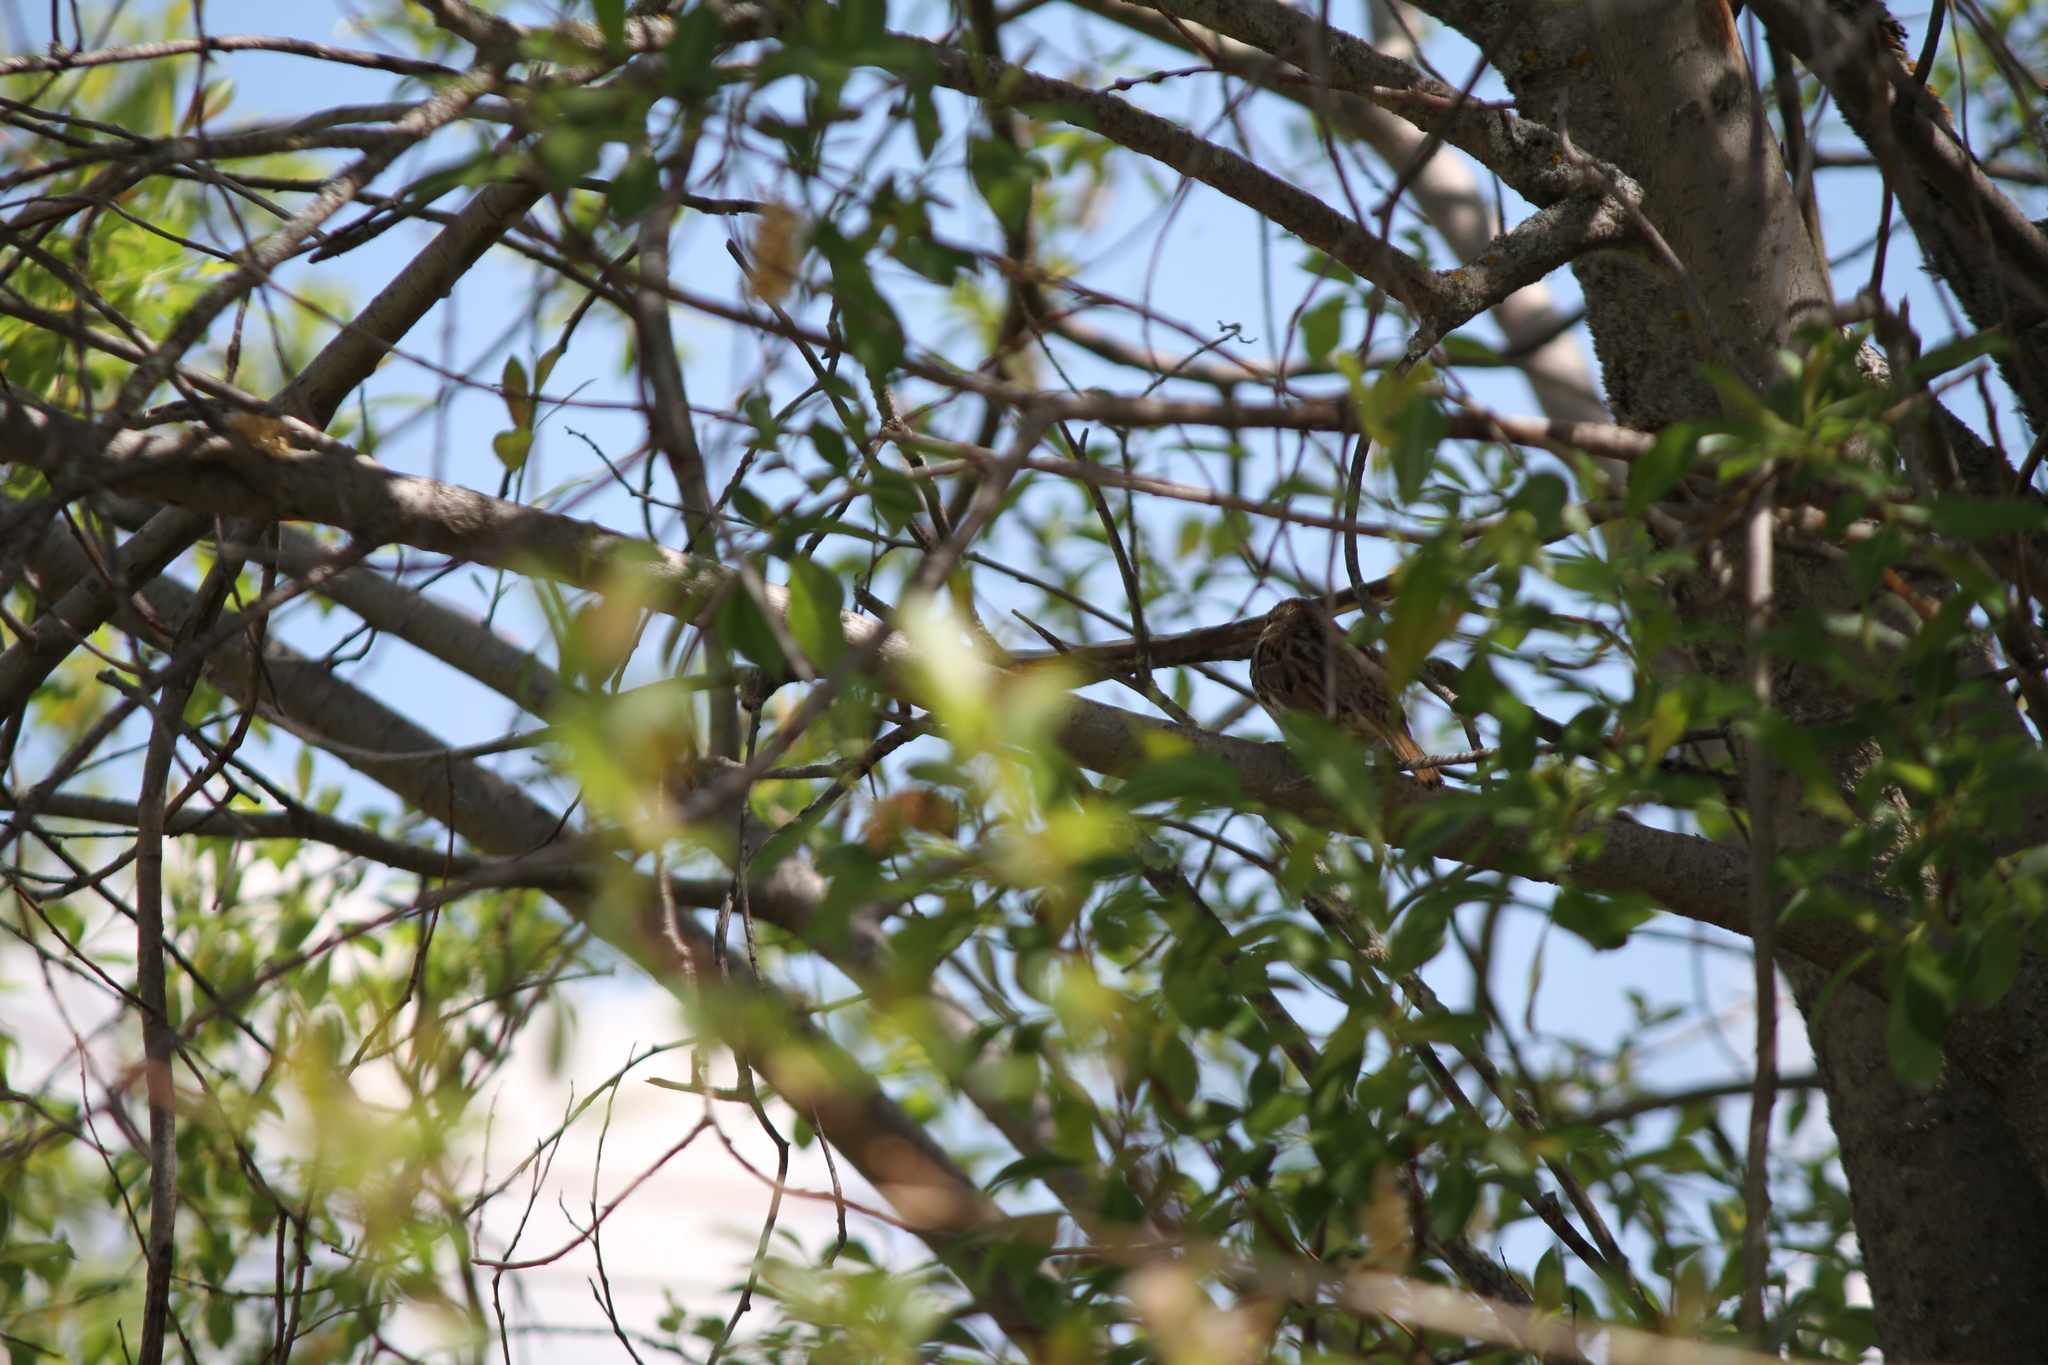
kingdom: Animalia
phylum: Chordata
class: Aves
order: Passeriformes
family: Passerellidae
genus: Melospiza
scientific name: Melospiza melodia
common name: Song sparrow
